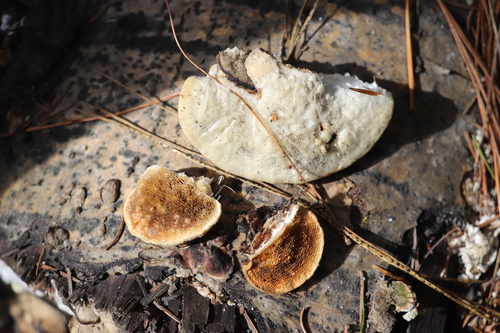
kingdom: Fungi
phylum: Basidiomycota
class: Agaricomycetes
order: Polyporales
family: Polyporaceae
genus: Trametes
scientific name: Trametes suaveolens
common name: Fragrant bracket
